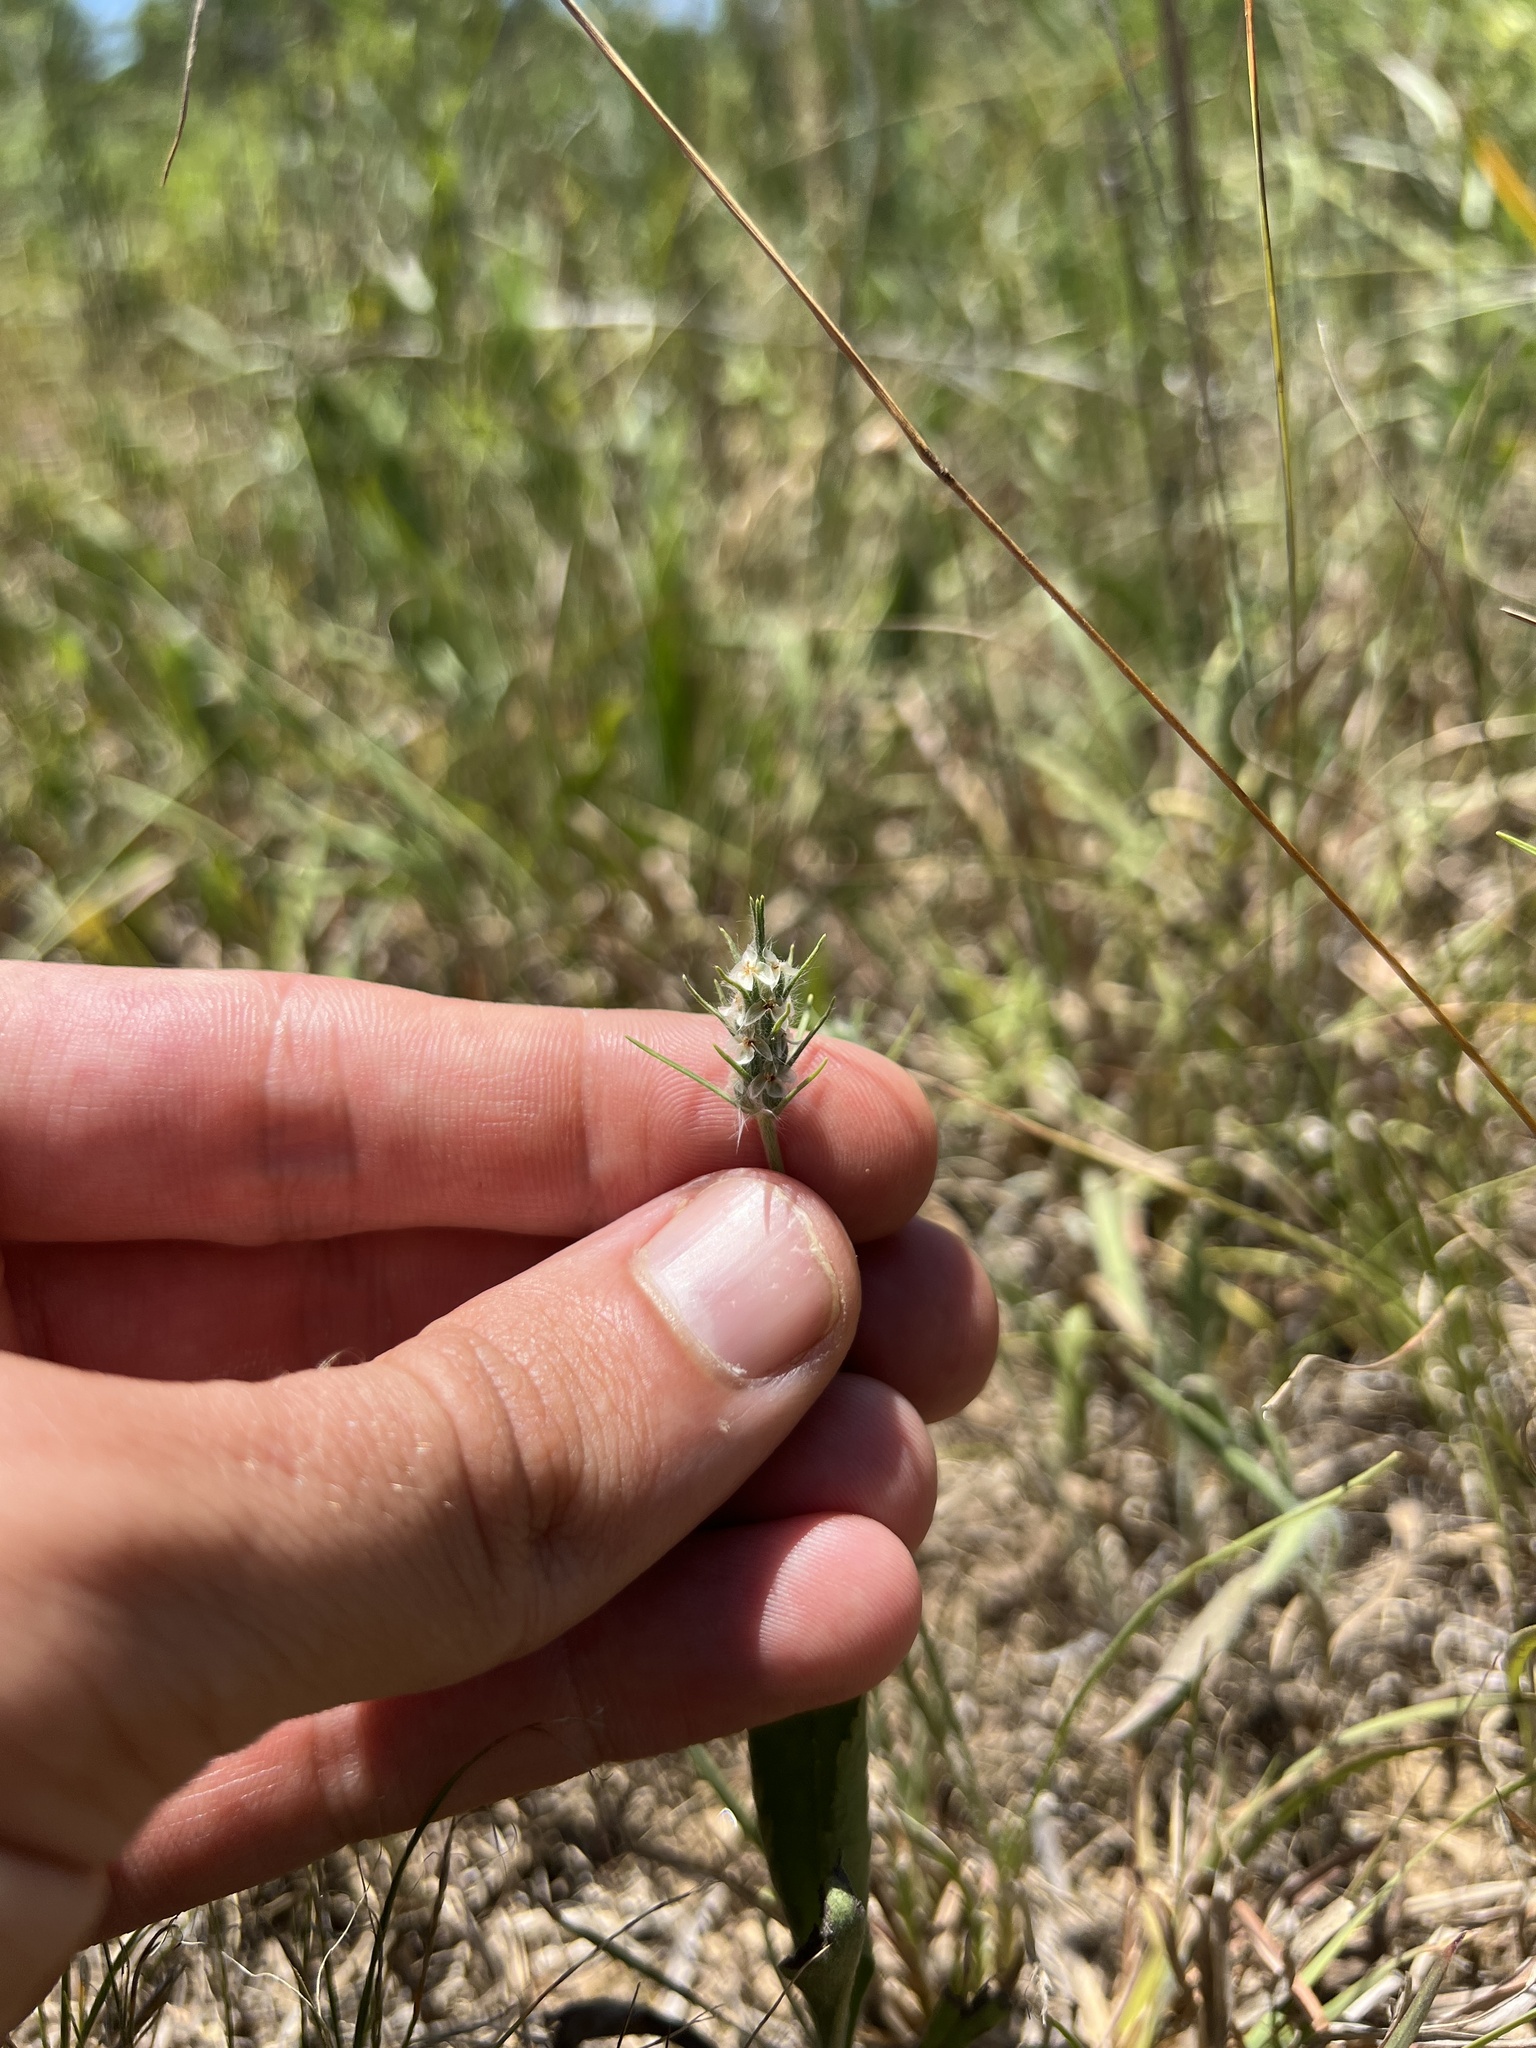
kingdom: Plantae
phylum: Tracheophyta
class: Magnoliopsida
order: Lamiales
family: Plantaginaceae
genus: Plantago
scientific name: Plantago aristata
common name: Bracted plantain
